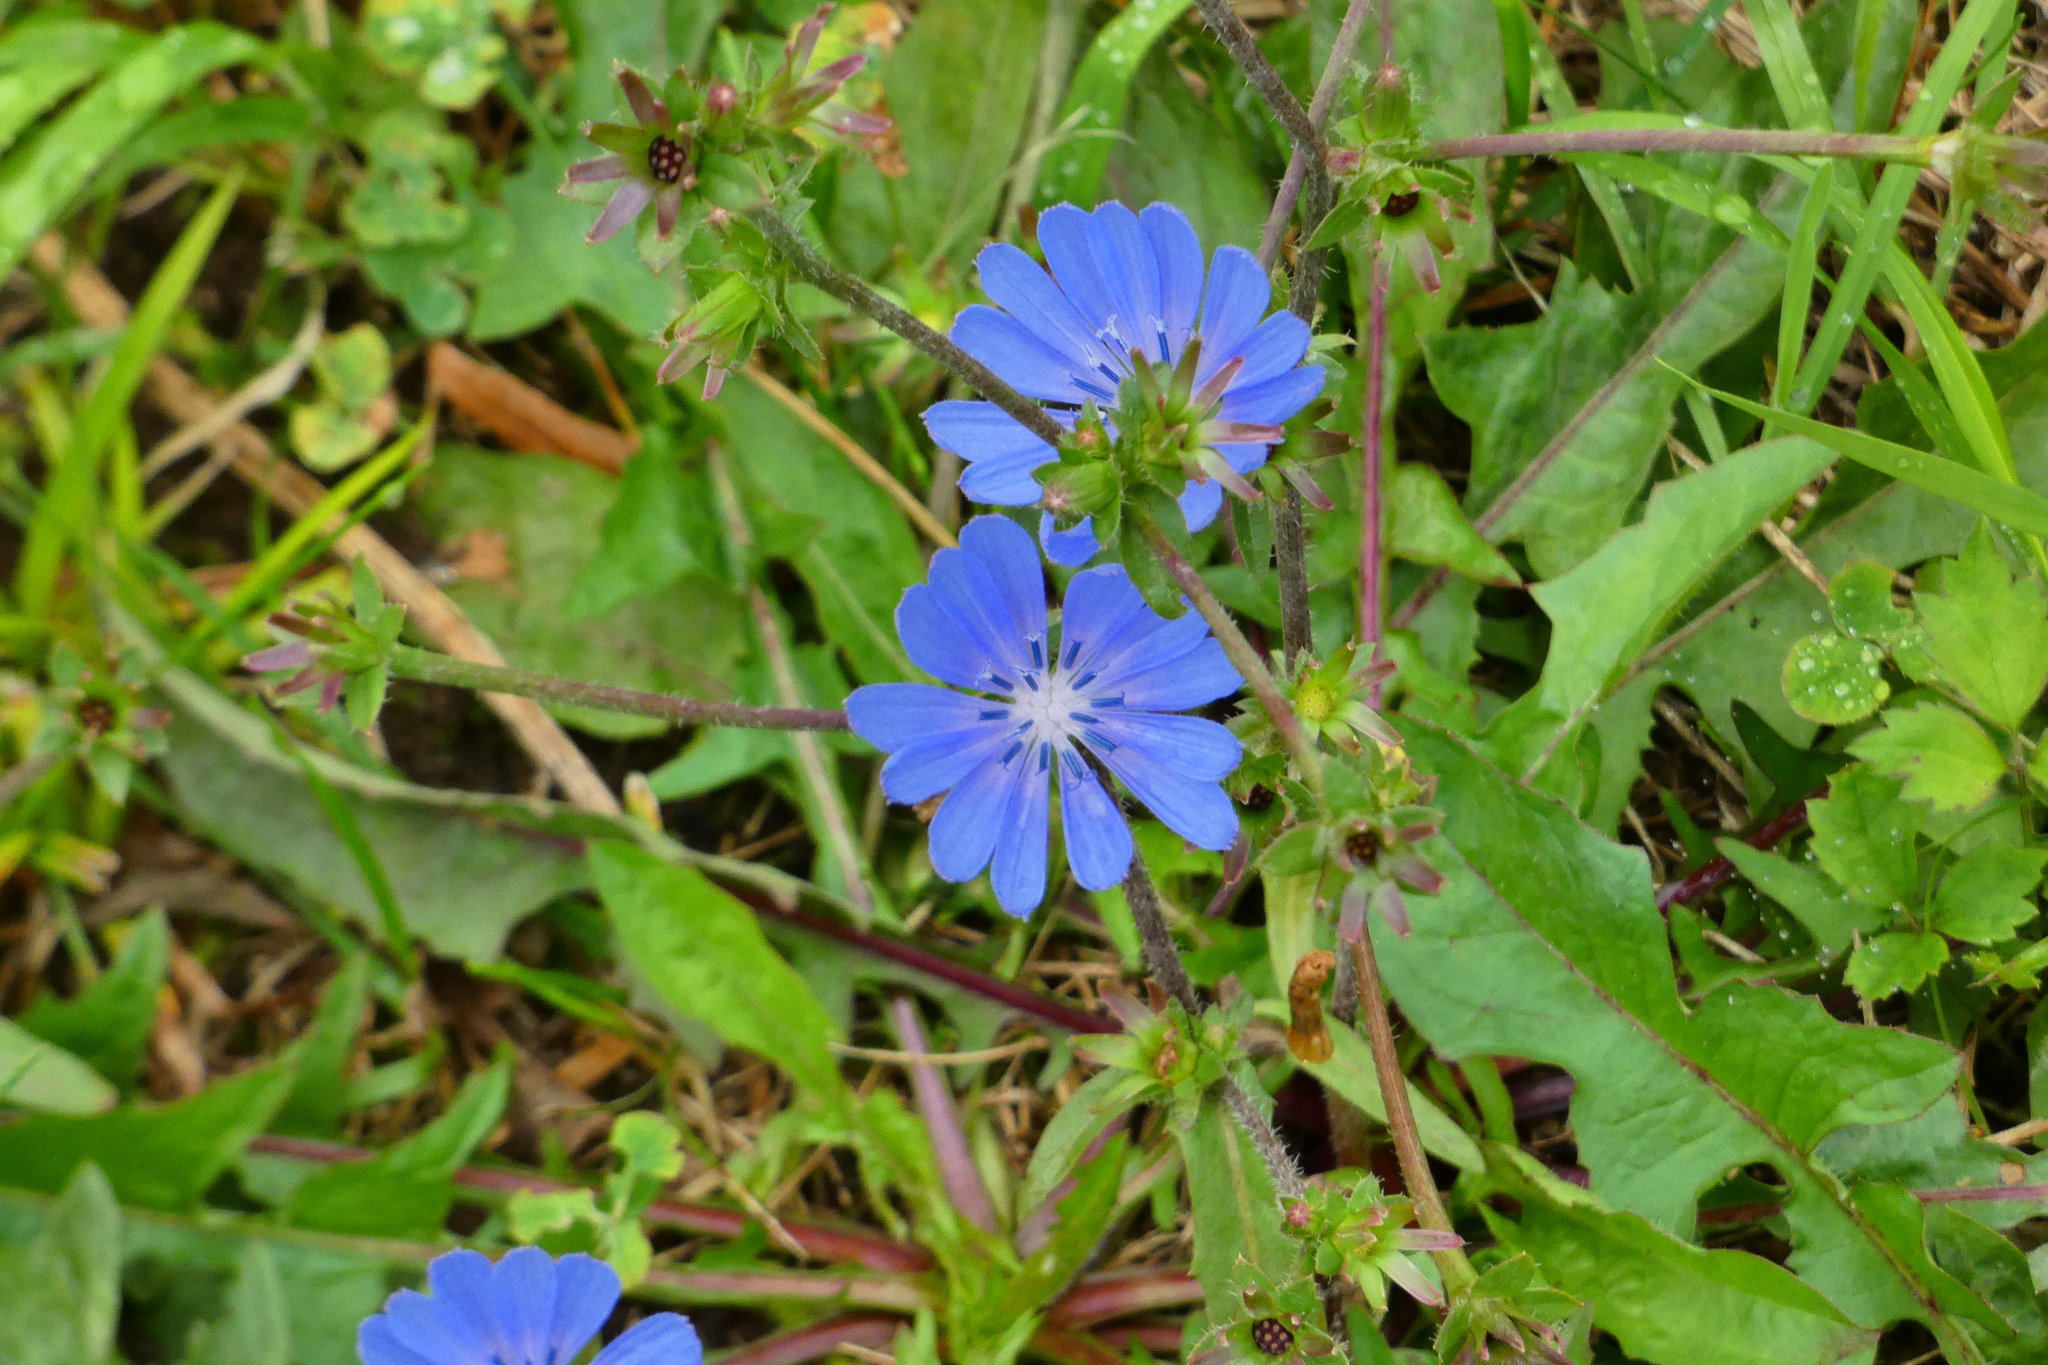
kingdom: Plantae
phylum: Tracheophyta
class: Magnoliopsida
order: Asterales
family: Asteraceae
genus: Cichorium
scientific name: Cichorium intybus
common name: Chicory
